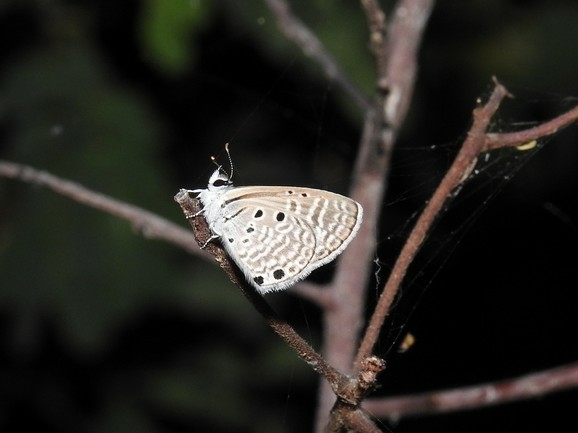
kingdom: Animalia
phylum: Arthropoda
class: Insecta
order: Lepidoptera
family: Lycaenidae
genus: Azanus
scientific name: Azanus ubaldus
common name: Desert babul blue
